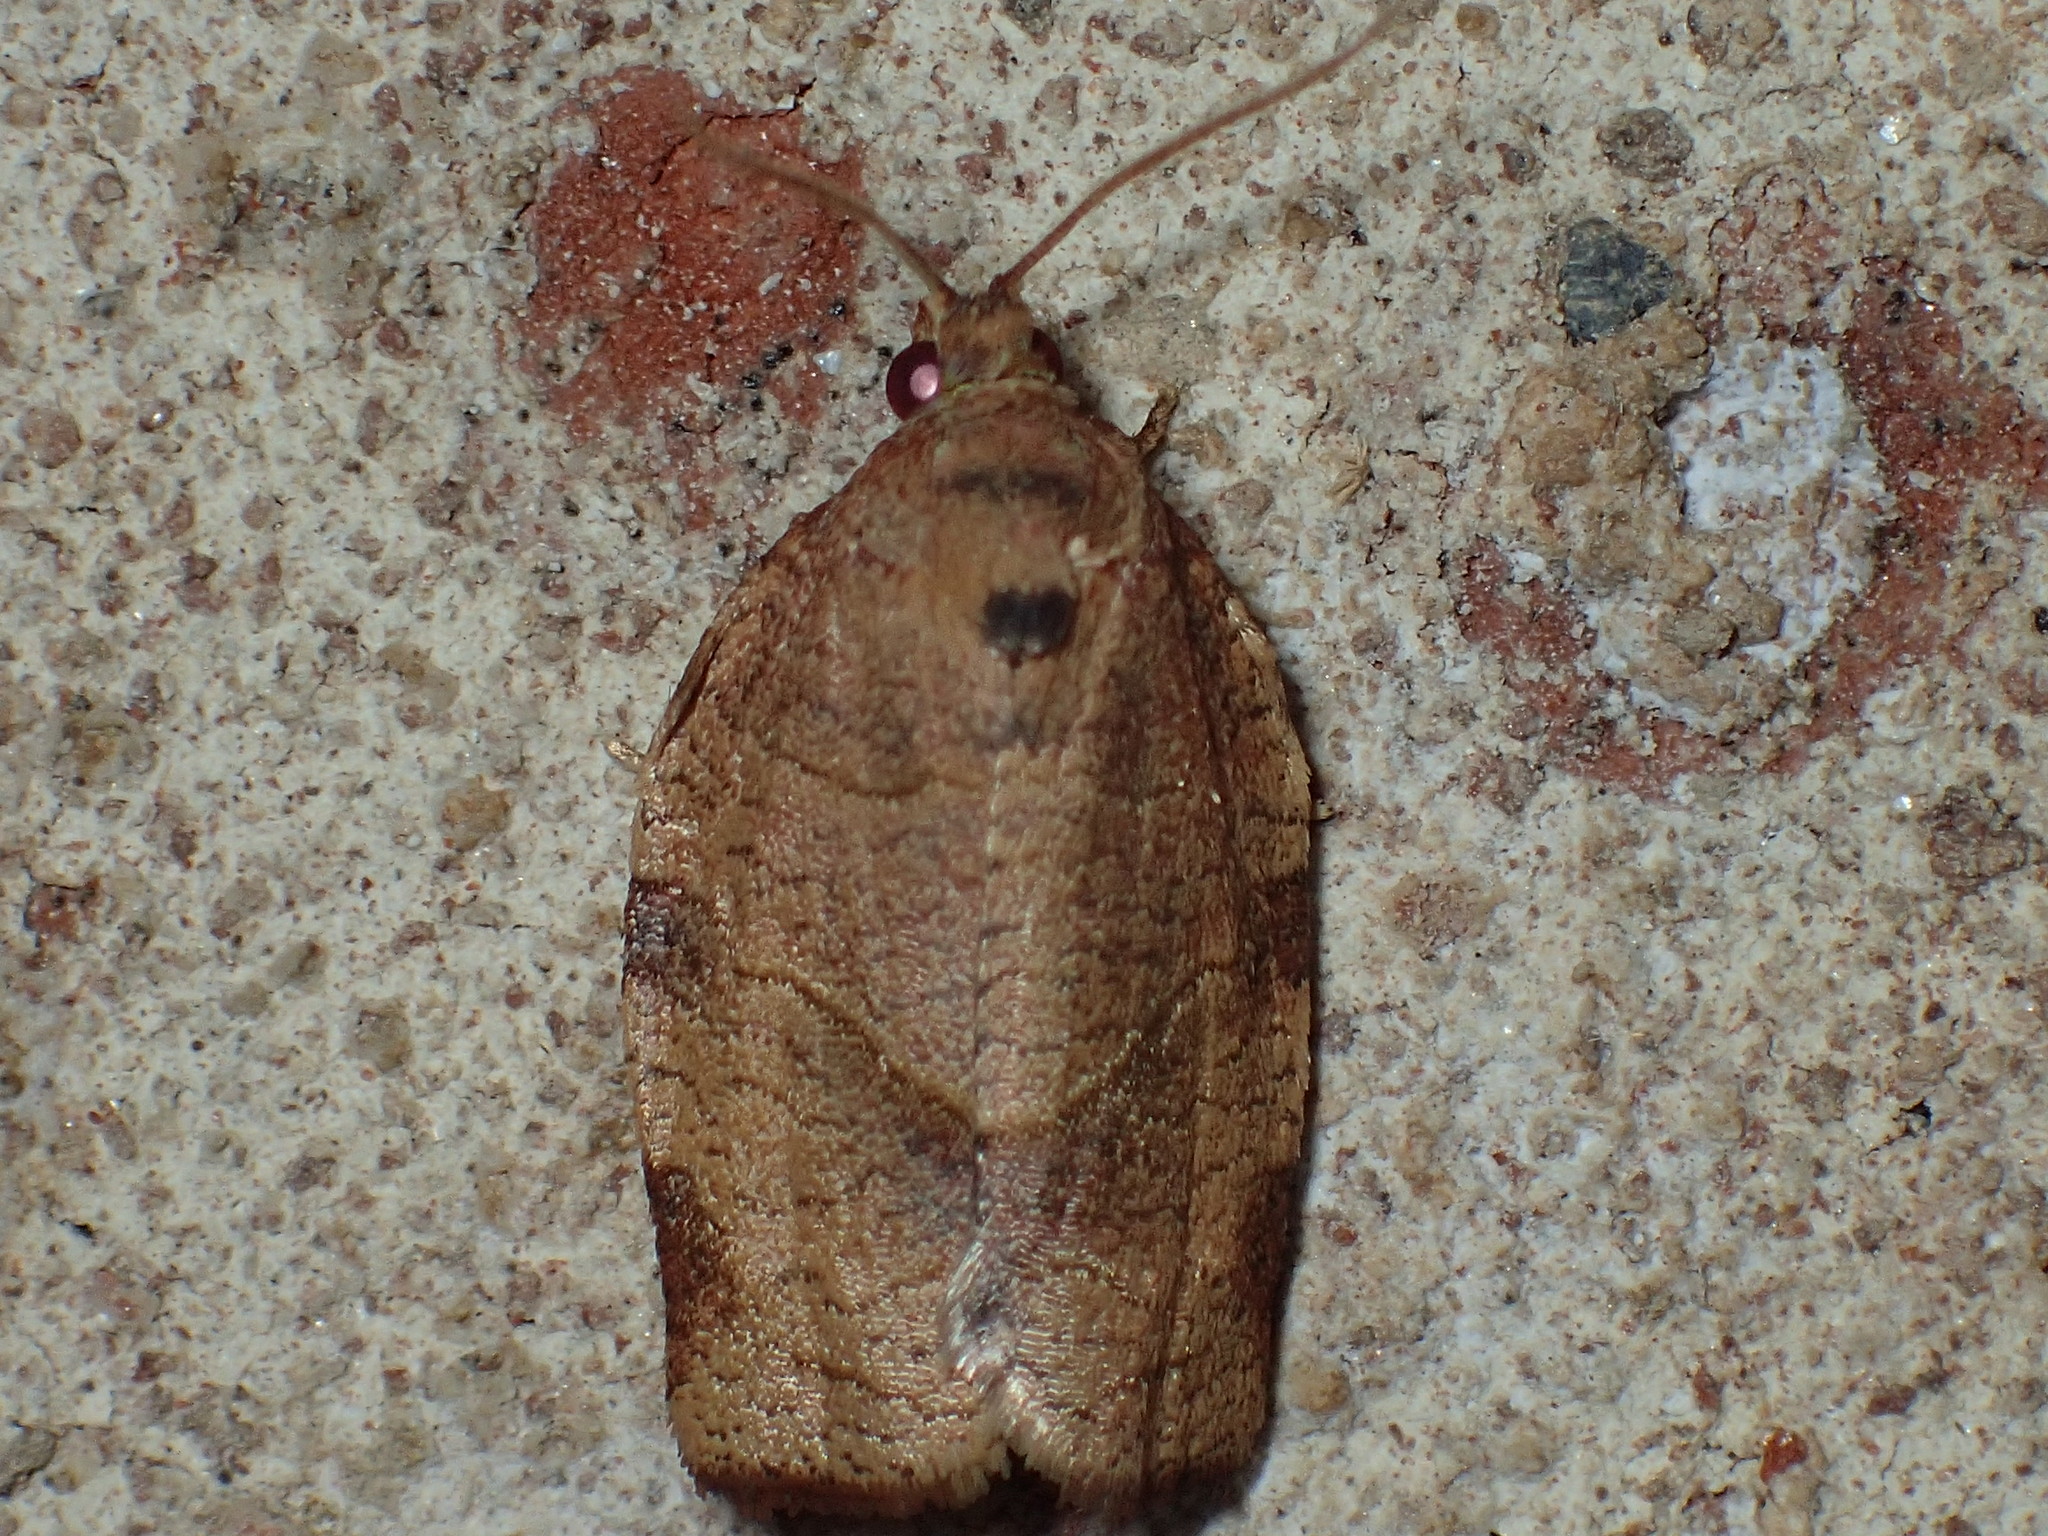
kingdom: Animalia
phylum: Arthropoda
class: Insecta
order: Lepidoptera
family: Tortricidae
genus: Choristoneura
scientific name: Choristoneura rosaceana
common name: Oblique-banded leafroller moth
